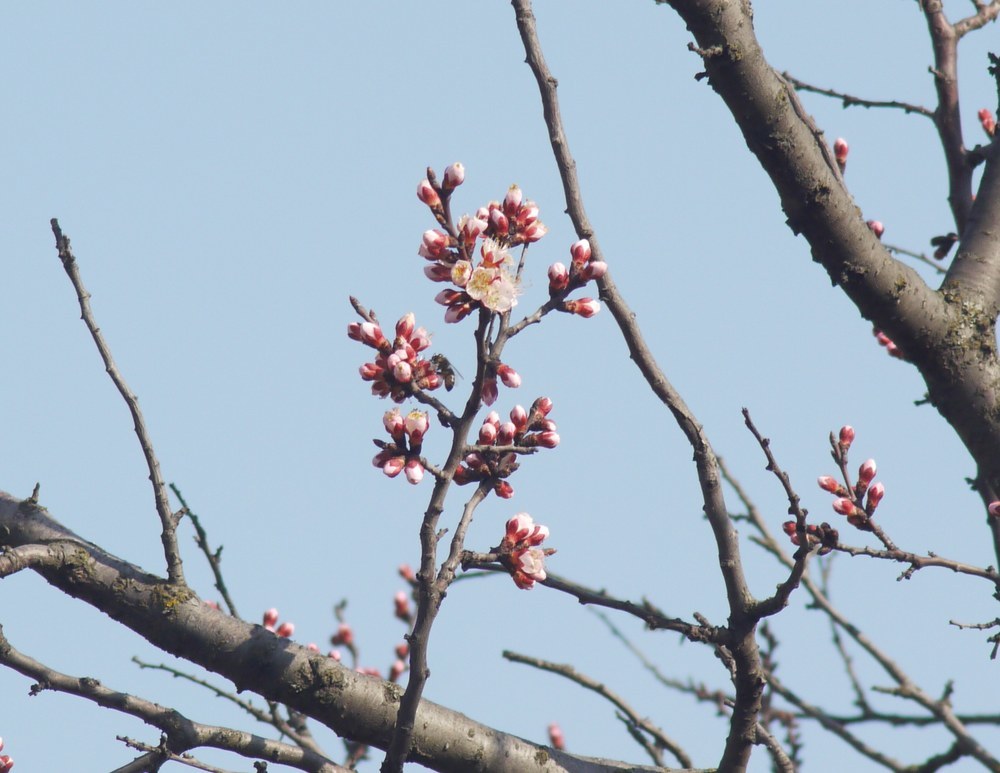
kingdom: Plantae
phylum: Tracheophyta
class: Magnoliopsida
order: Rosales
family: Rosaceae
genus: Prunus
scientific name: Prunus armeniaca
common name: Apricot
